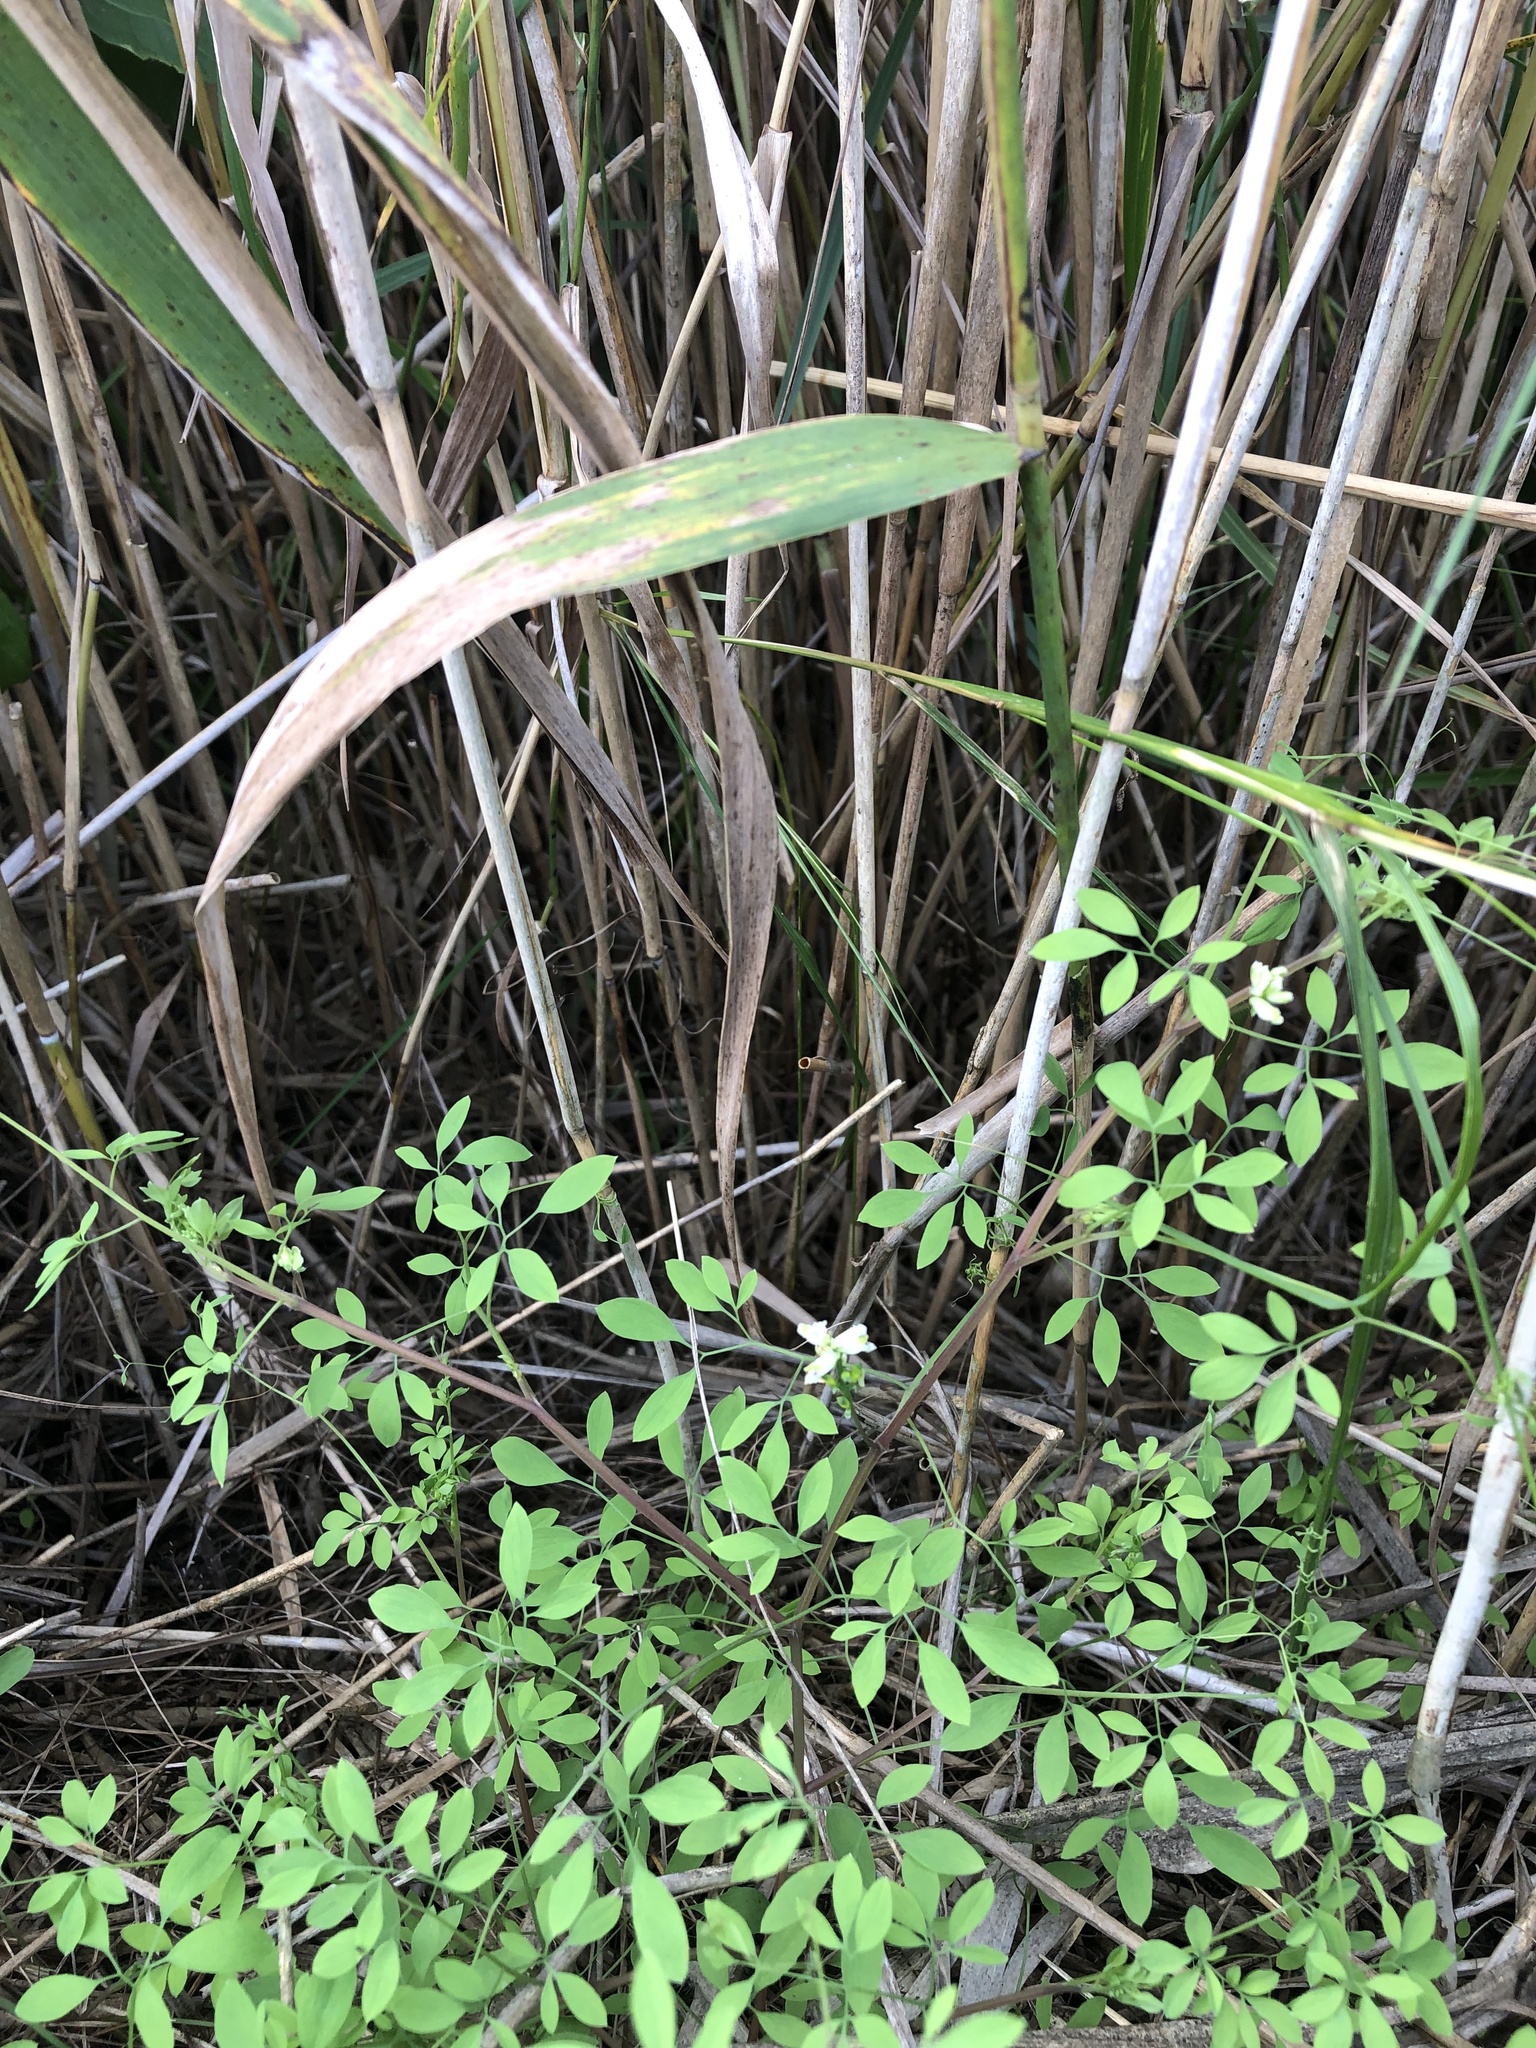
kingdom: Plantae
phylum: Tracheophyta
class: Magnoliopsida
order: Ranunculales
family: Papaveraceae
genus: Ceratocapnos
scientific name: Ceratocapnos claviculata
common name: Climbing corydalis
